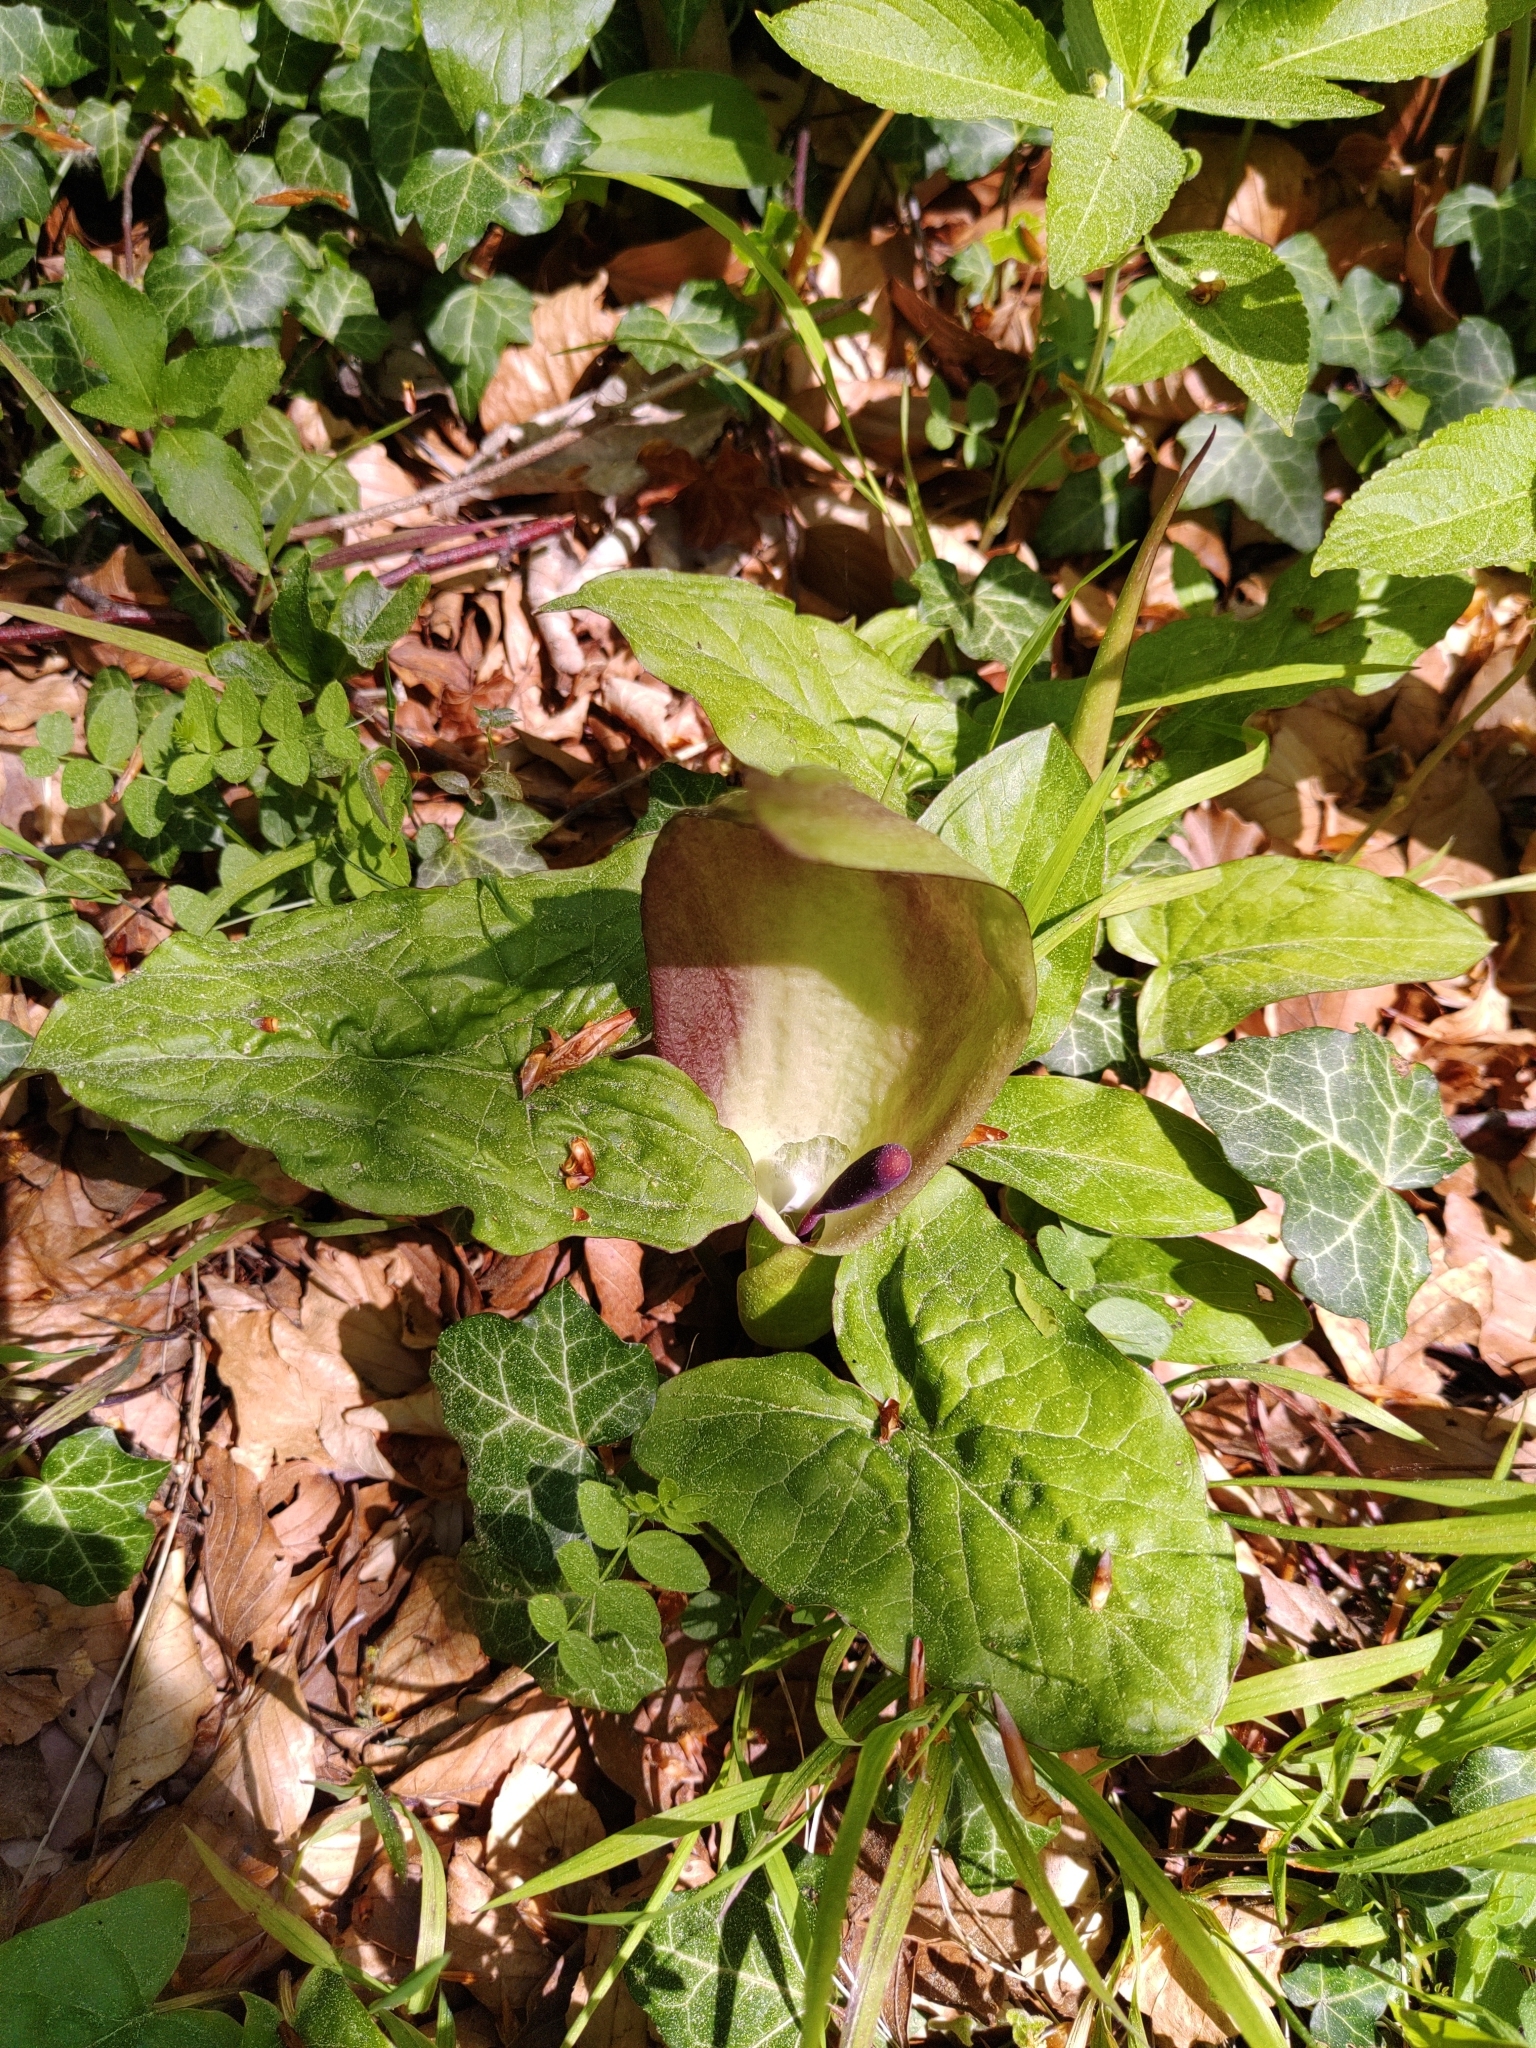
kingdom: Plantae
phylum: Tracheophyta
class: Liliopsida
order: Alismatales
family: Araceae
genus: Arum
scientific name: Arum maculatum
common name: Lords-and-ladies
